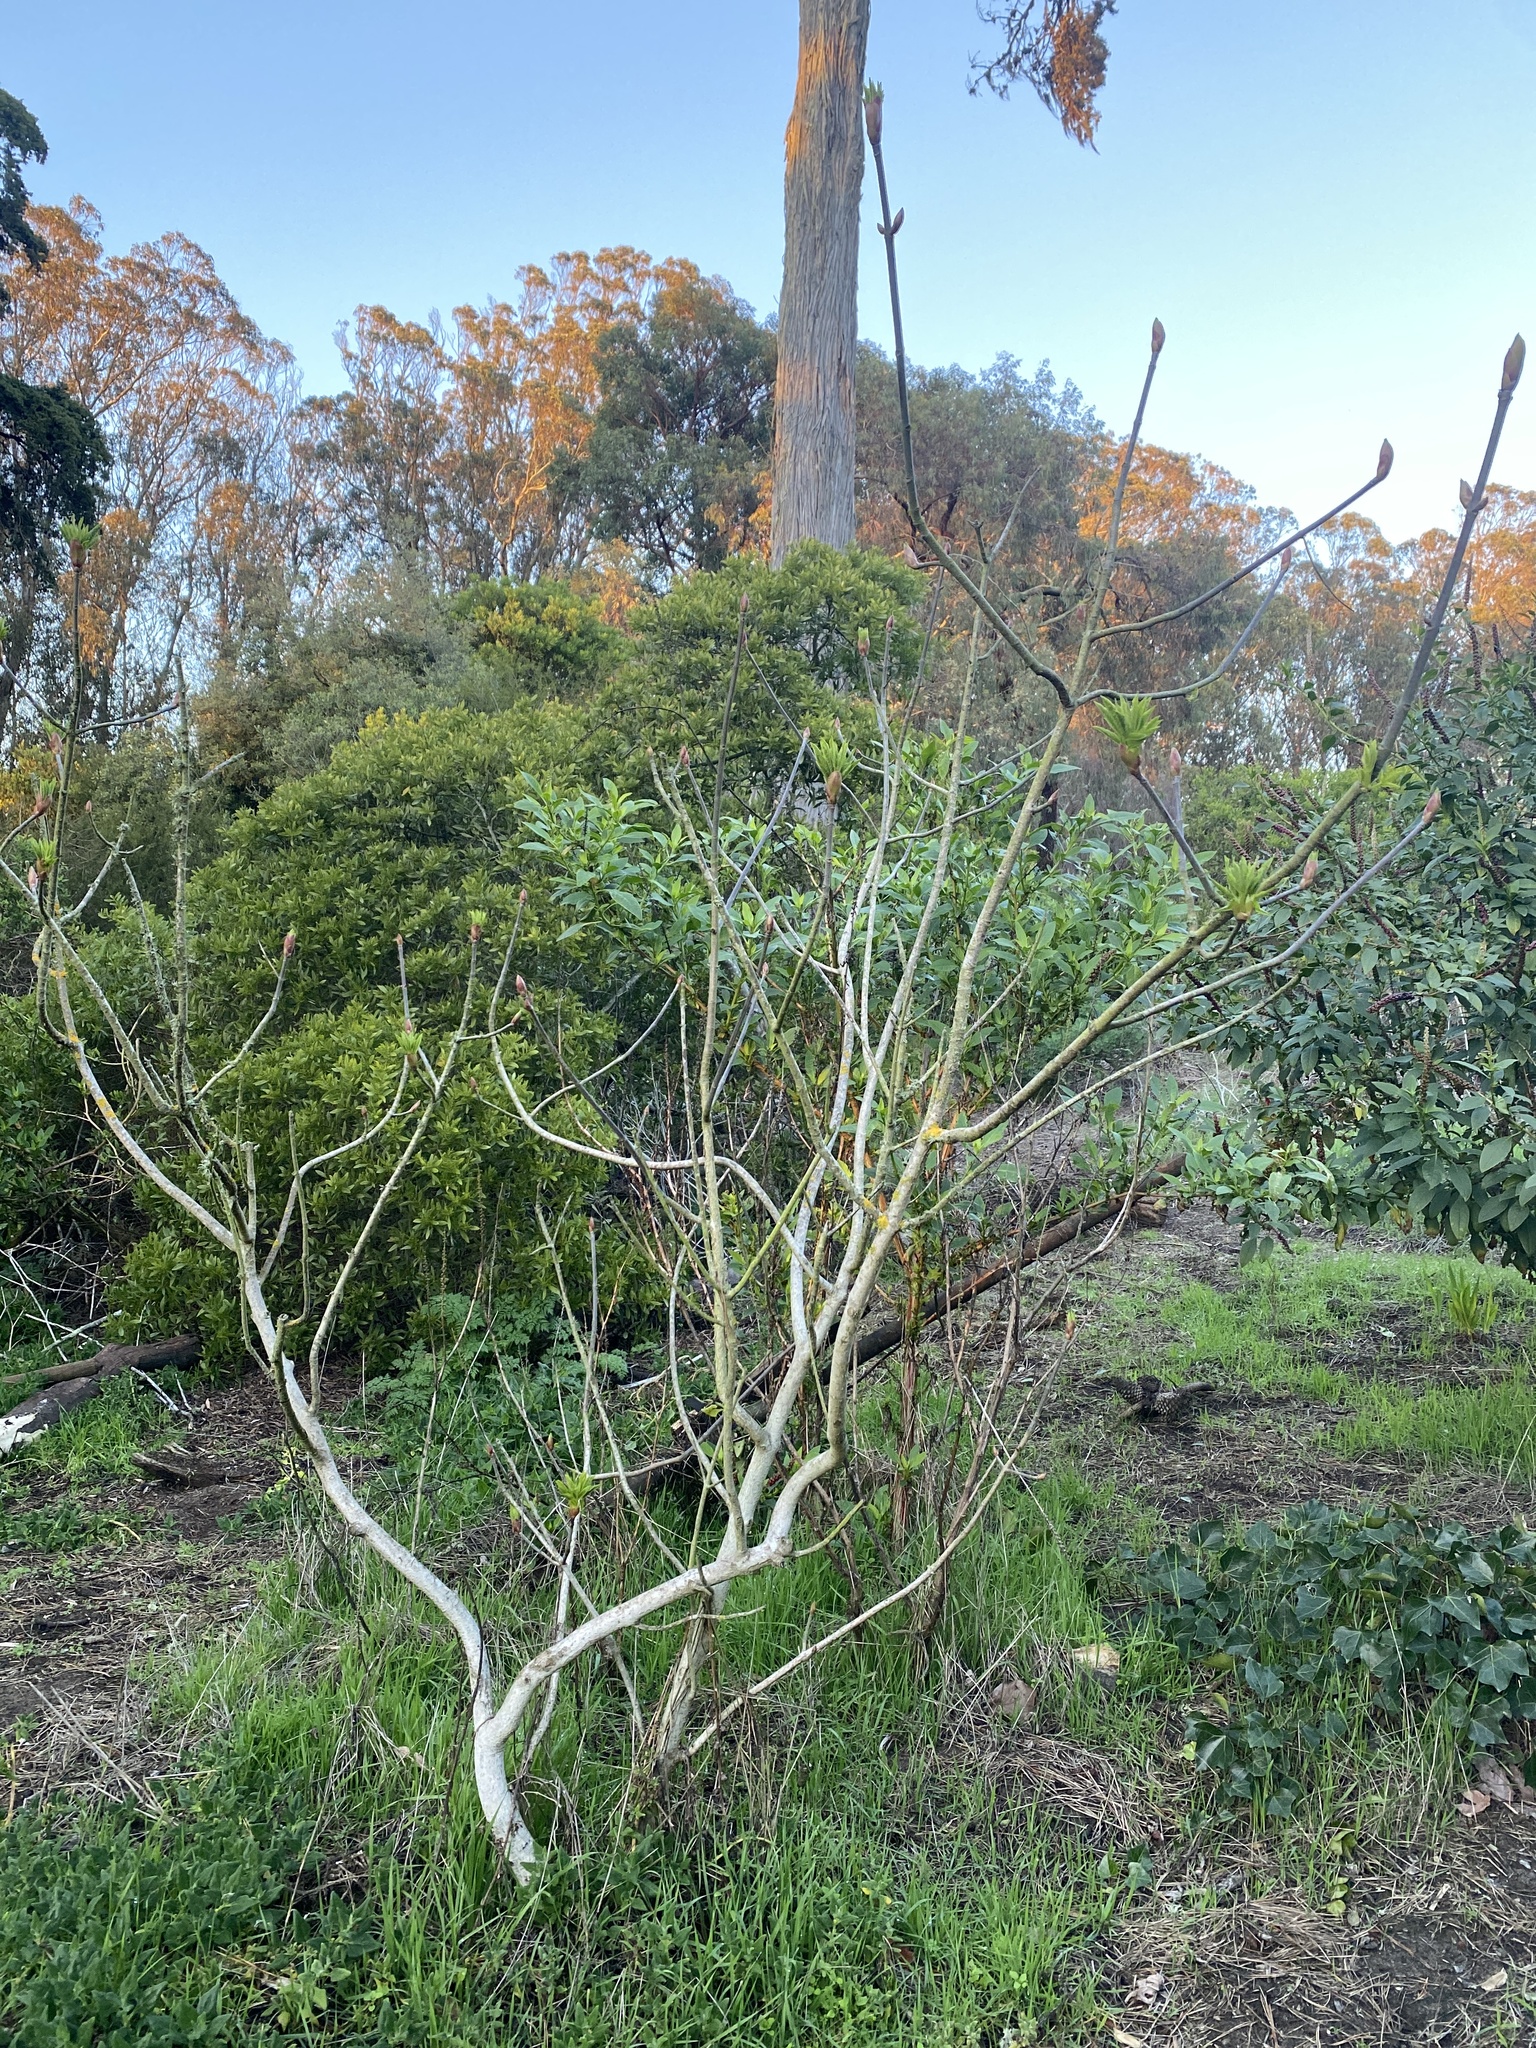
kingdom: Plantae
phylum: Tracheophyta
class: Magnoliopsida
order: Sapindales
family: Sapindaceae
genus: Aesculus
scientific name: Aesculus californica
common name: California buckeye
